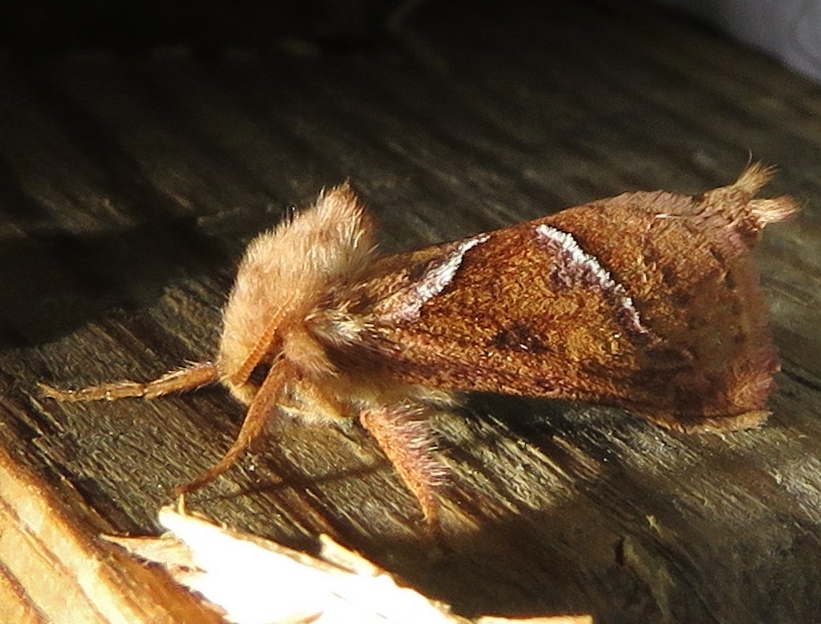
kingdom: Animalia
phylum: Arthropoda
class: Insecta
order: Lepidoptera
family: Hepialidae
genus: Triodia
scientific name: Triodia sylvina
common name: Orange swift
